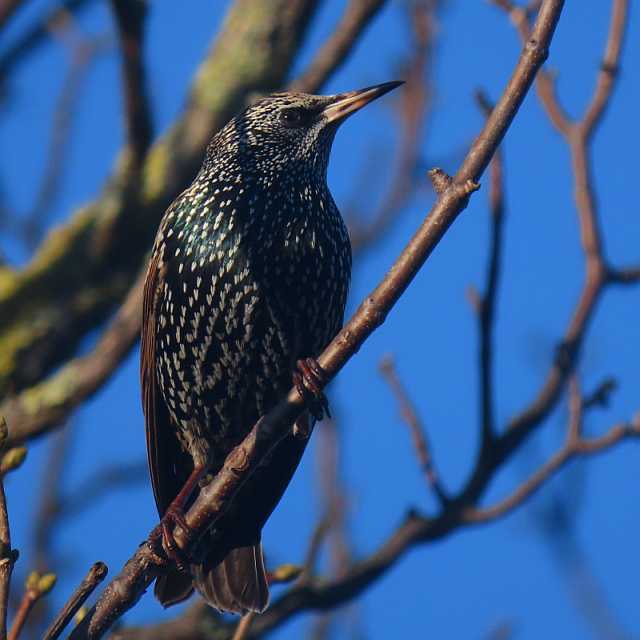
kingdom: Animalia
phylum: Chordata
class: Aves
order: Passeriformes
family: Sturnidae
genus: Sturnus
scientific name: Sturnus vulgaris
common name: Common starling
